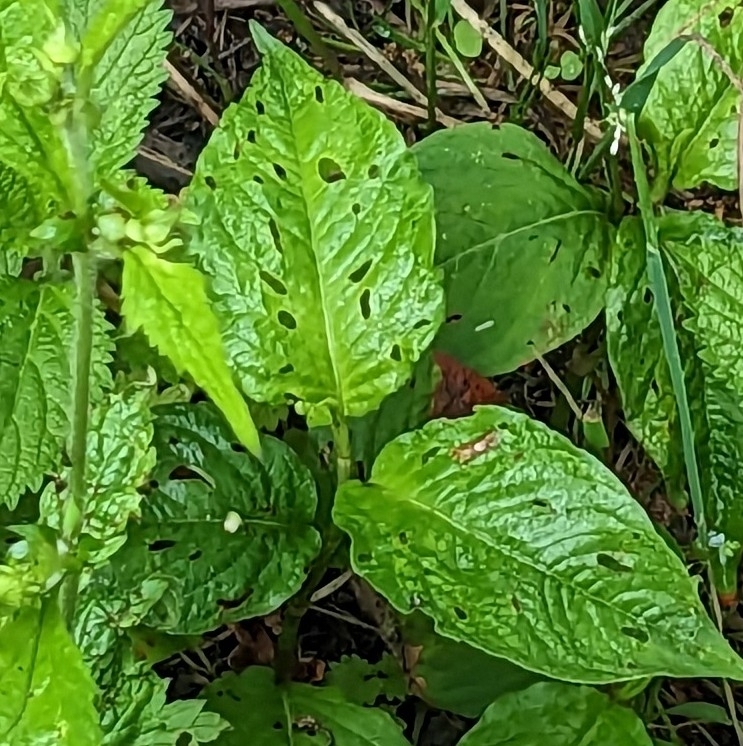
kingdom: Plantae
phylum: Tracheophyta
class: Magnoliopsida
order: Caryophyllales
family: Polygonaceae
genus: Persicaria
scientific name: Persicaria virginiana
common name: Jumpseed
